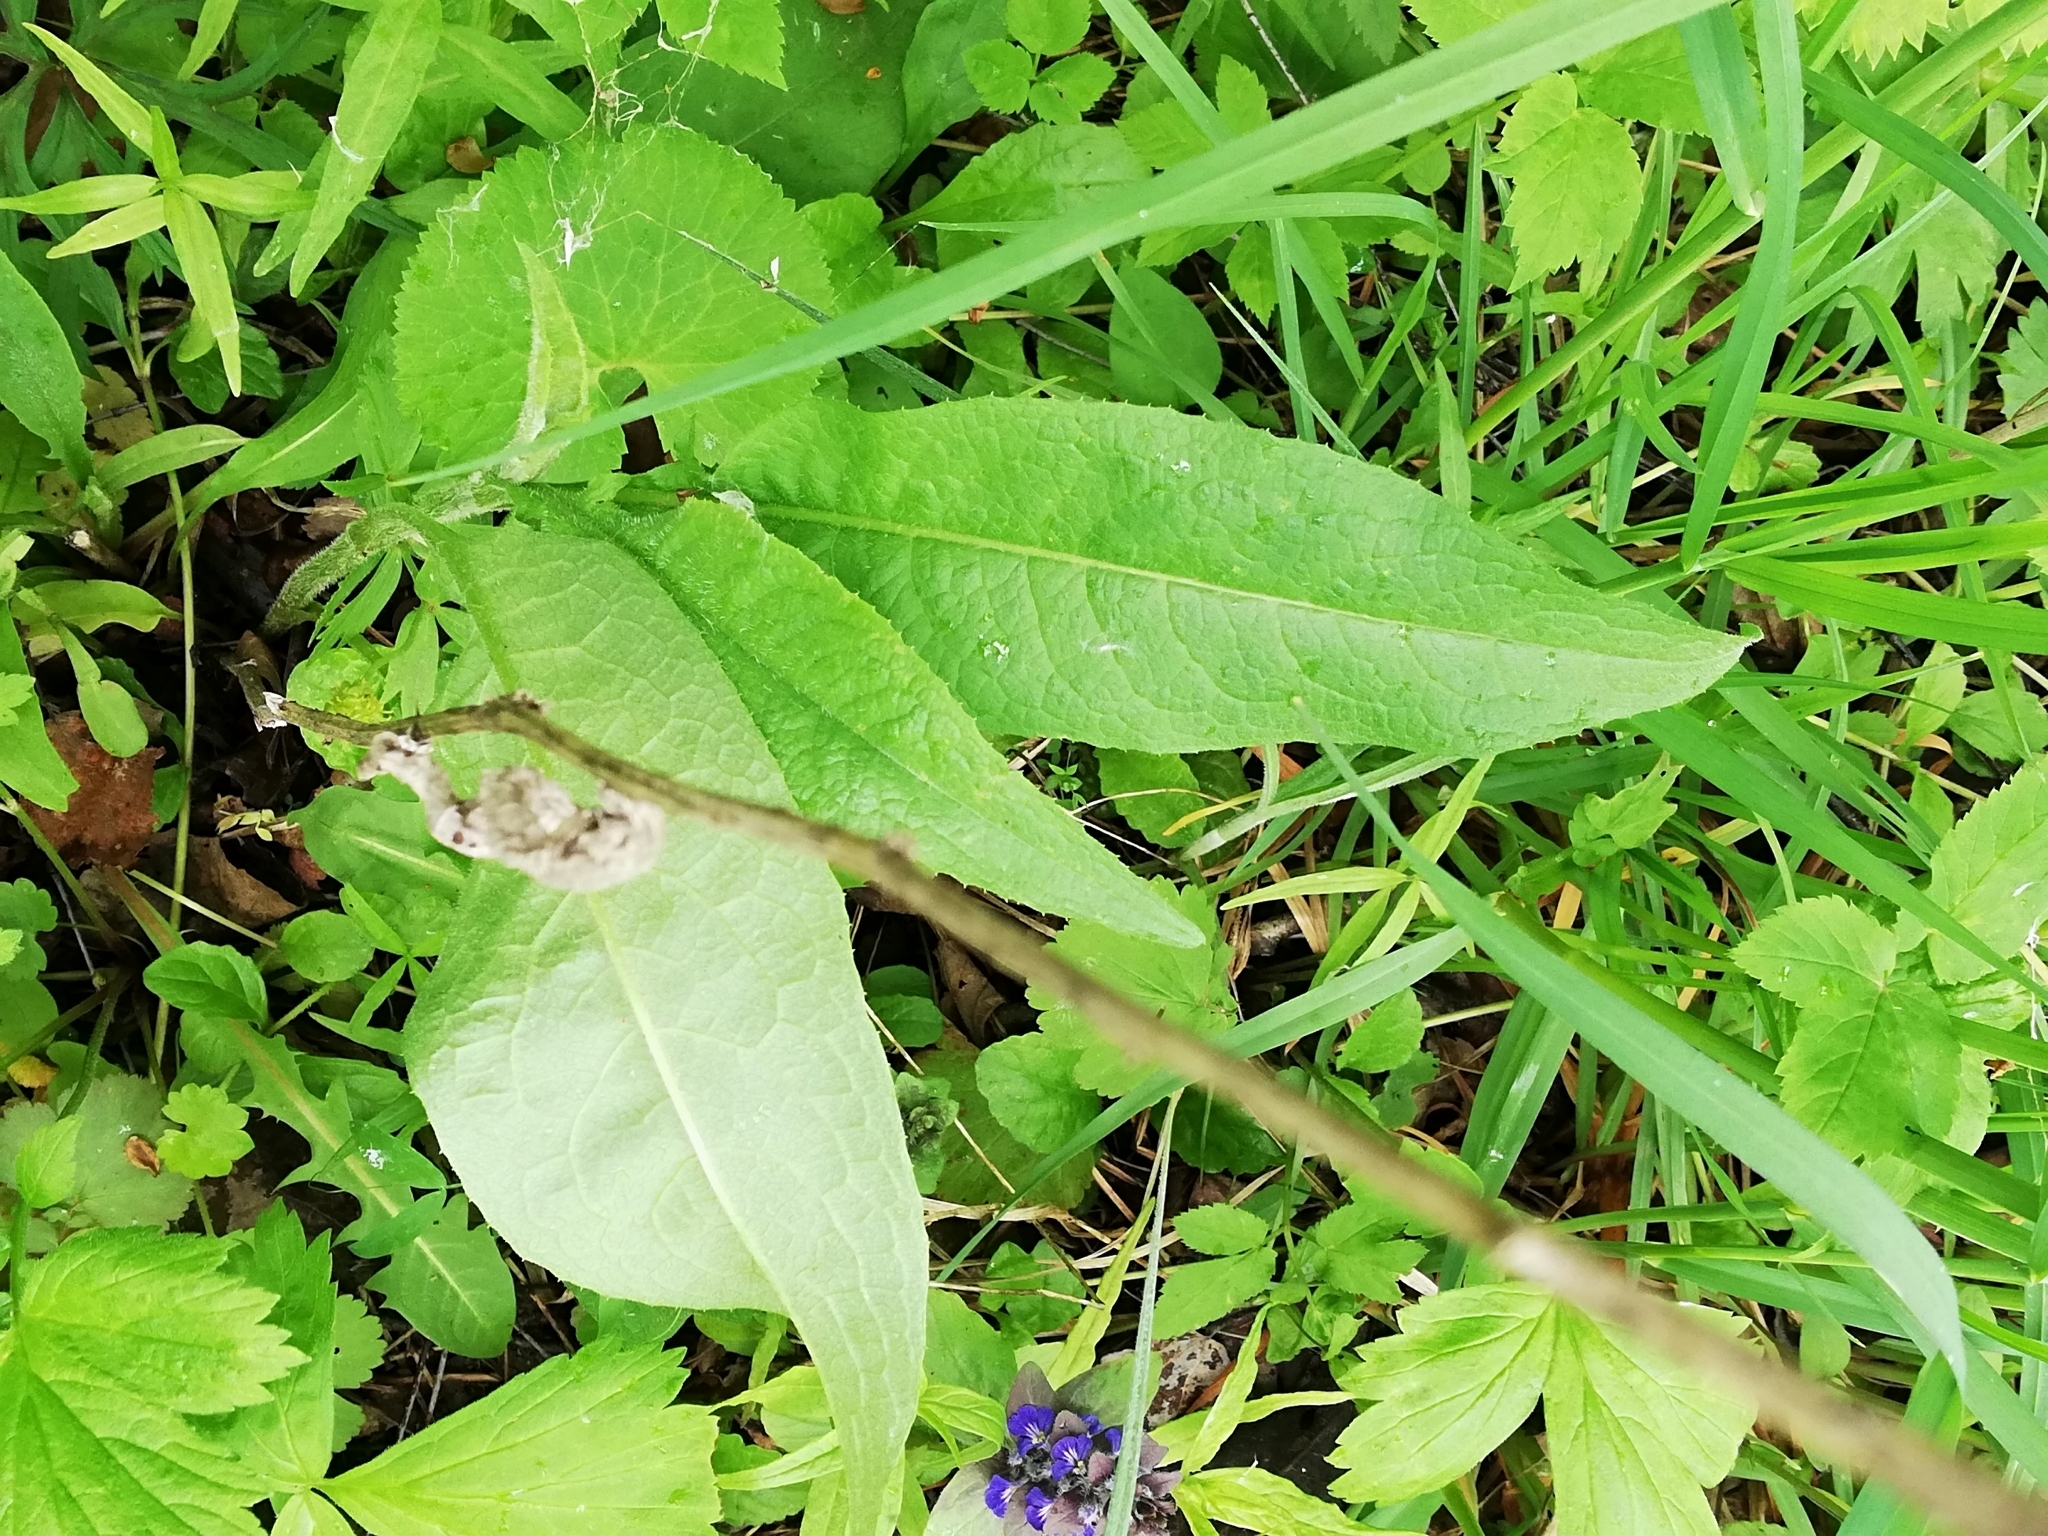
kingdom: Plantae
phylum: Tracheophyta
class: Magnoliopsida
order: Asterales
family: Asteraceae
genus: Centaurea
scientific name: Centaurea phrygia
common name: Wig knapweed
